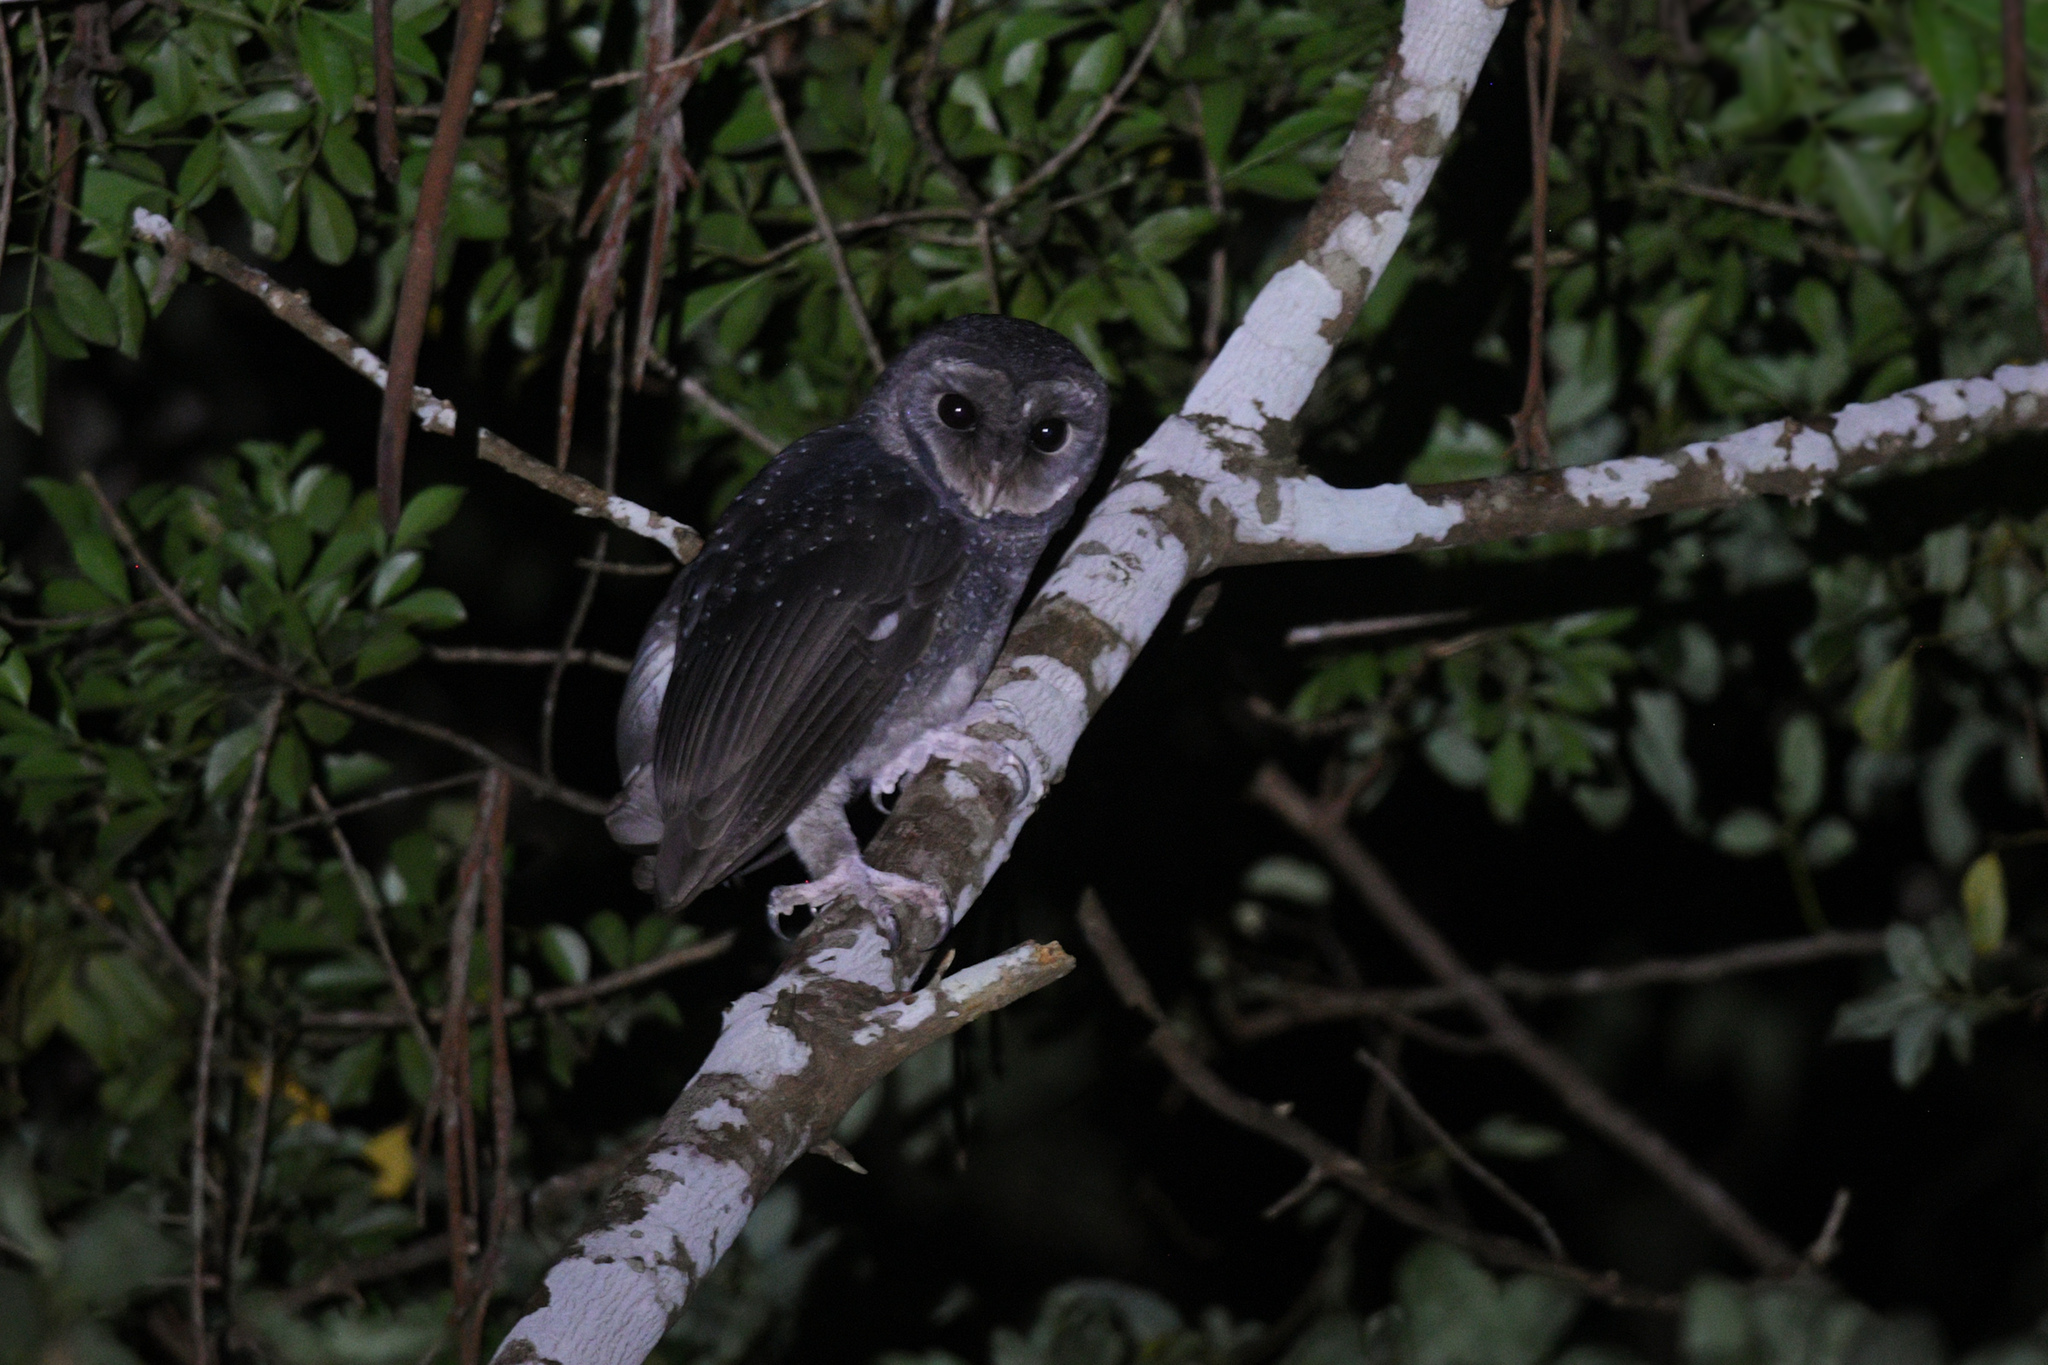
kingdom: Animalia
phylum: Chordata
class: Aves
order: Strigiformes
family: Tytonidae
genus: Tyto
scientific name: Tyto tenebricosa
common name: Greater sooty owl
